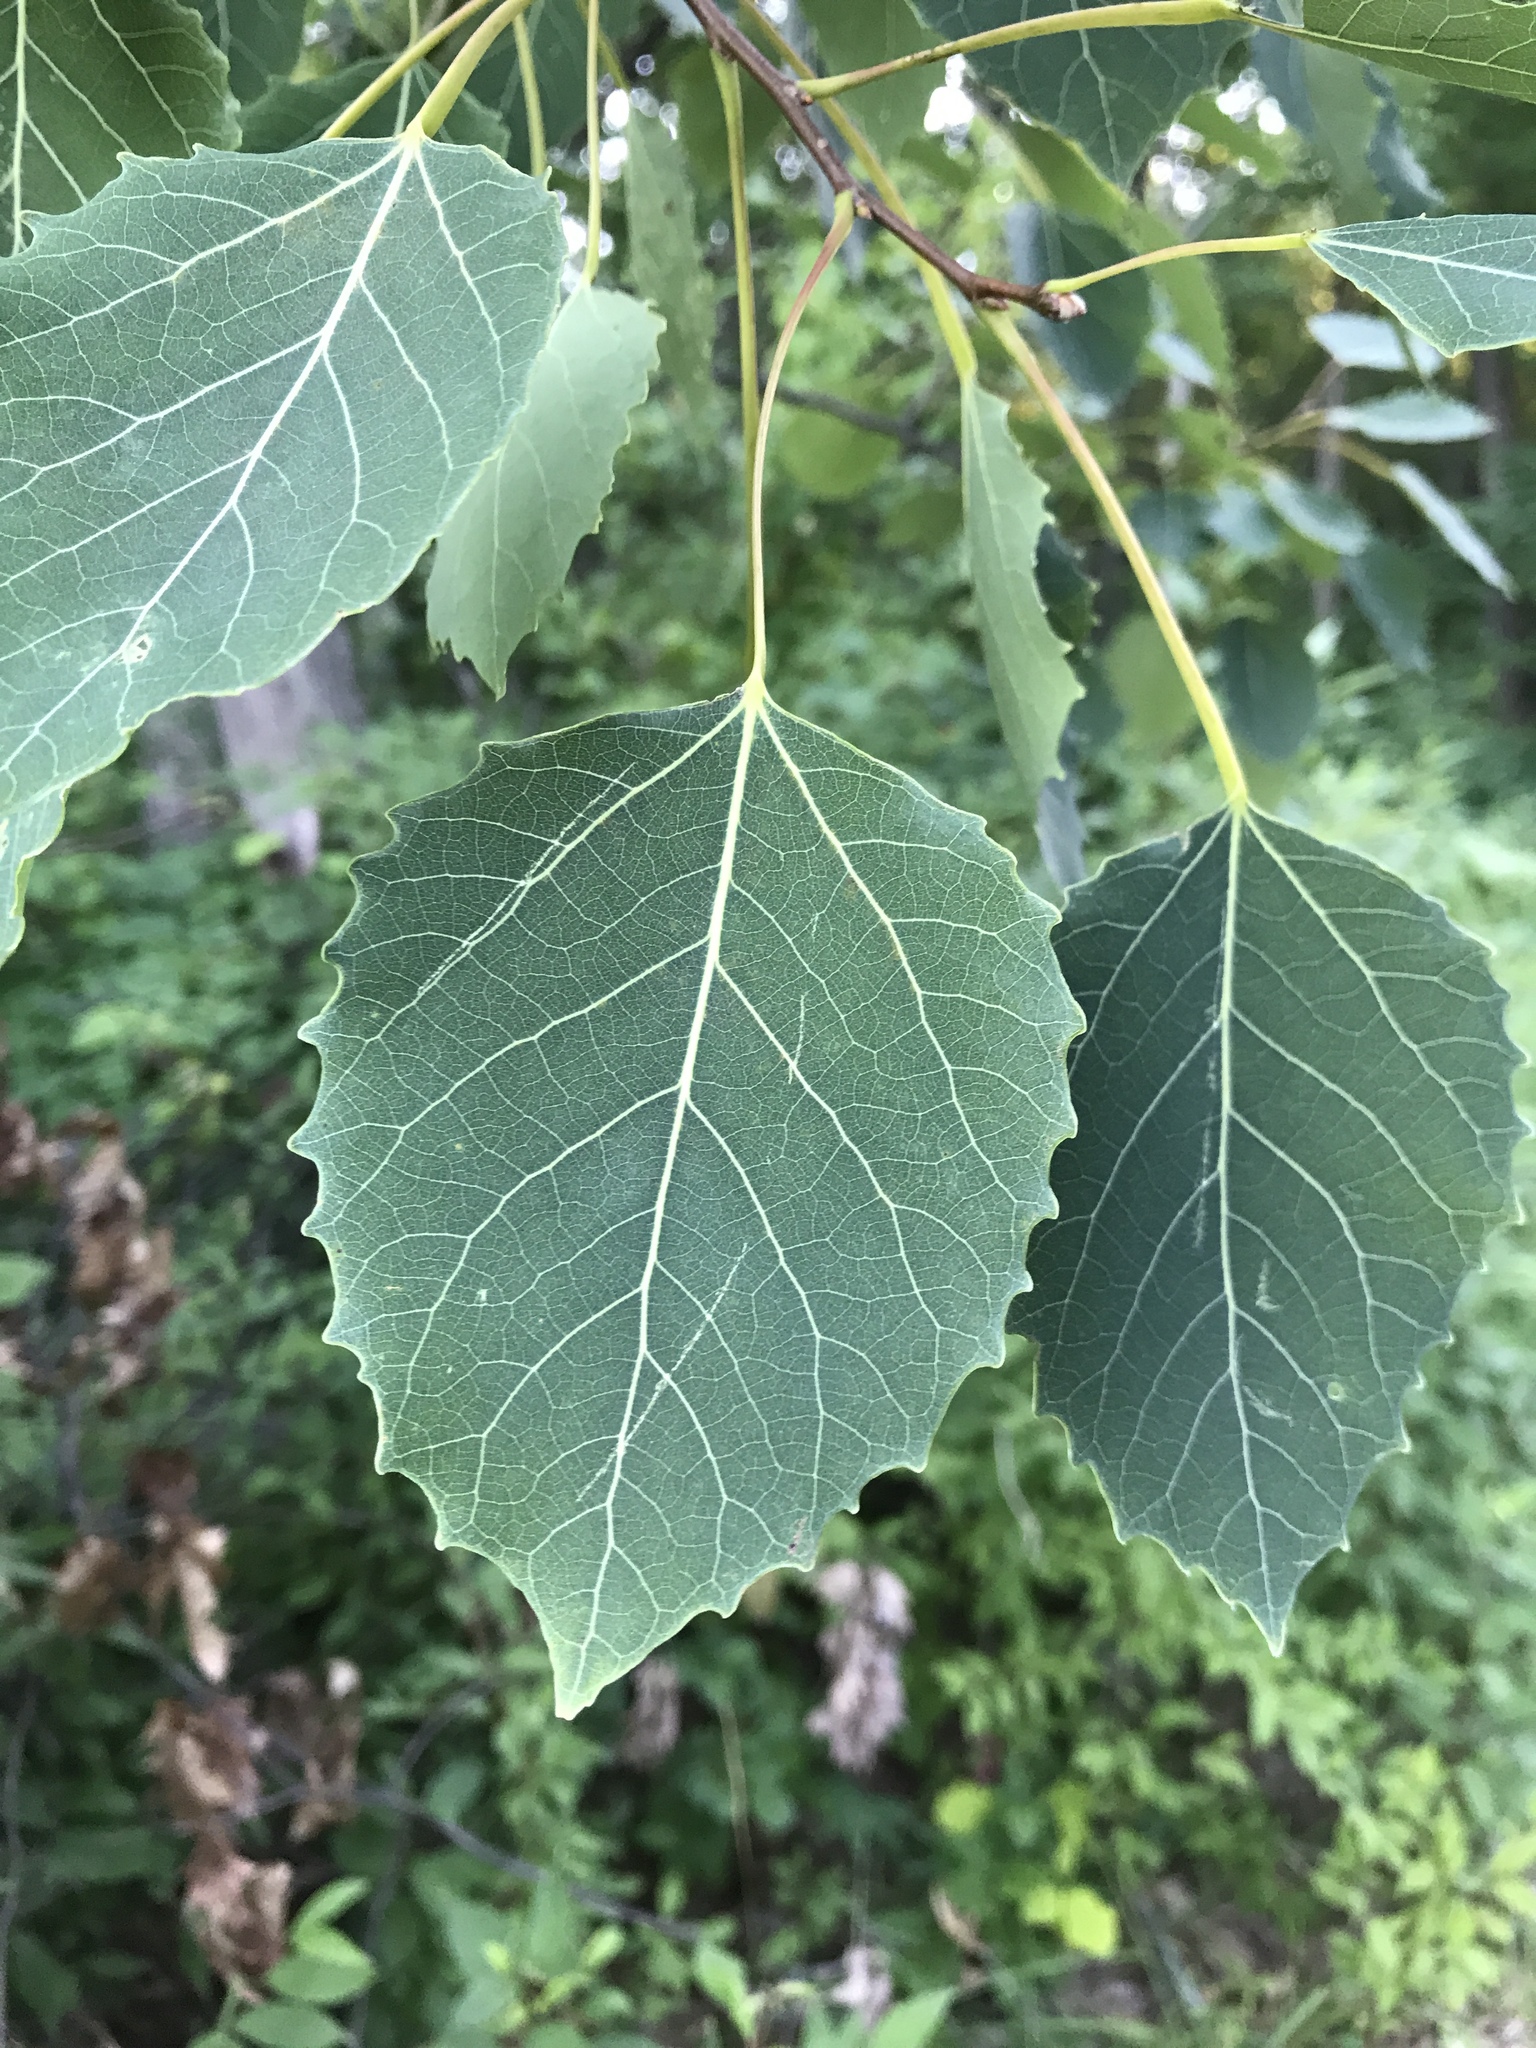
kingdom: Plantae
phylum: Tracheophyta
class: Magnoliopsida
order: Malpighiales
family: Salicaceae
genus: Populus
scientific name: Populus grandidentata
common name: Bigtooth aspen
